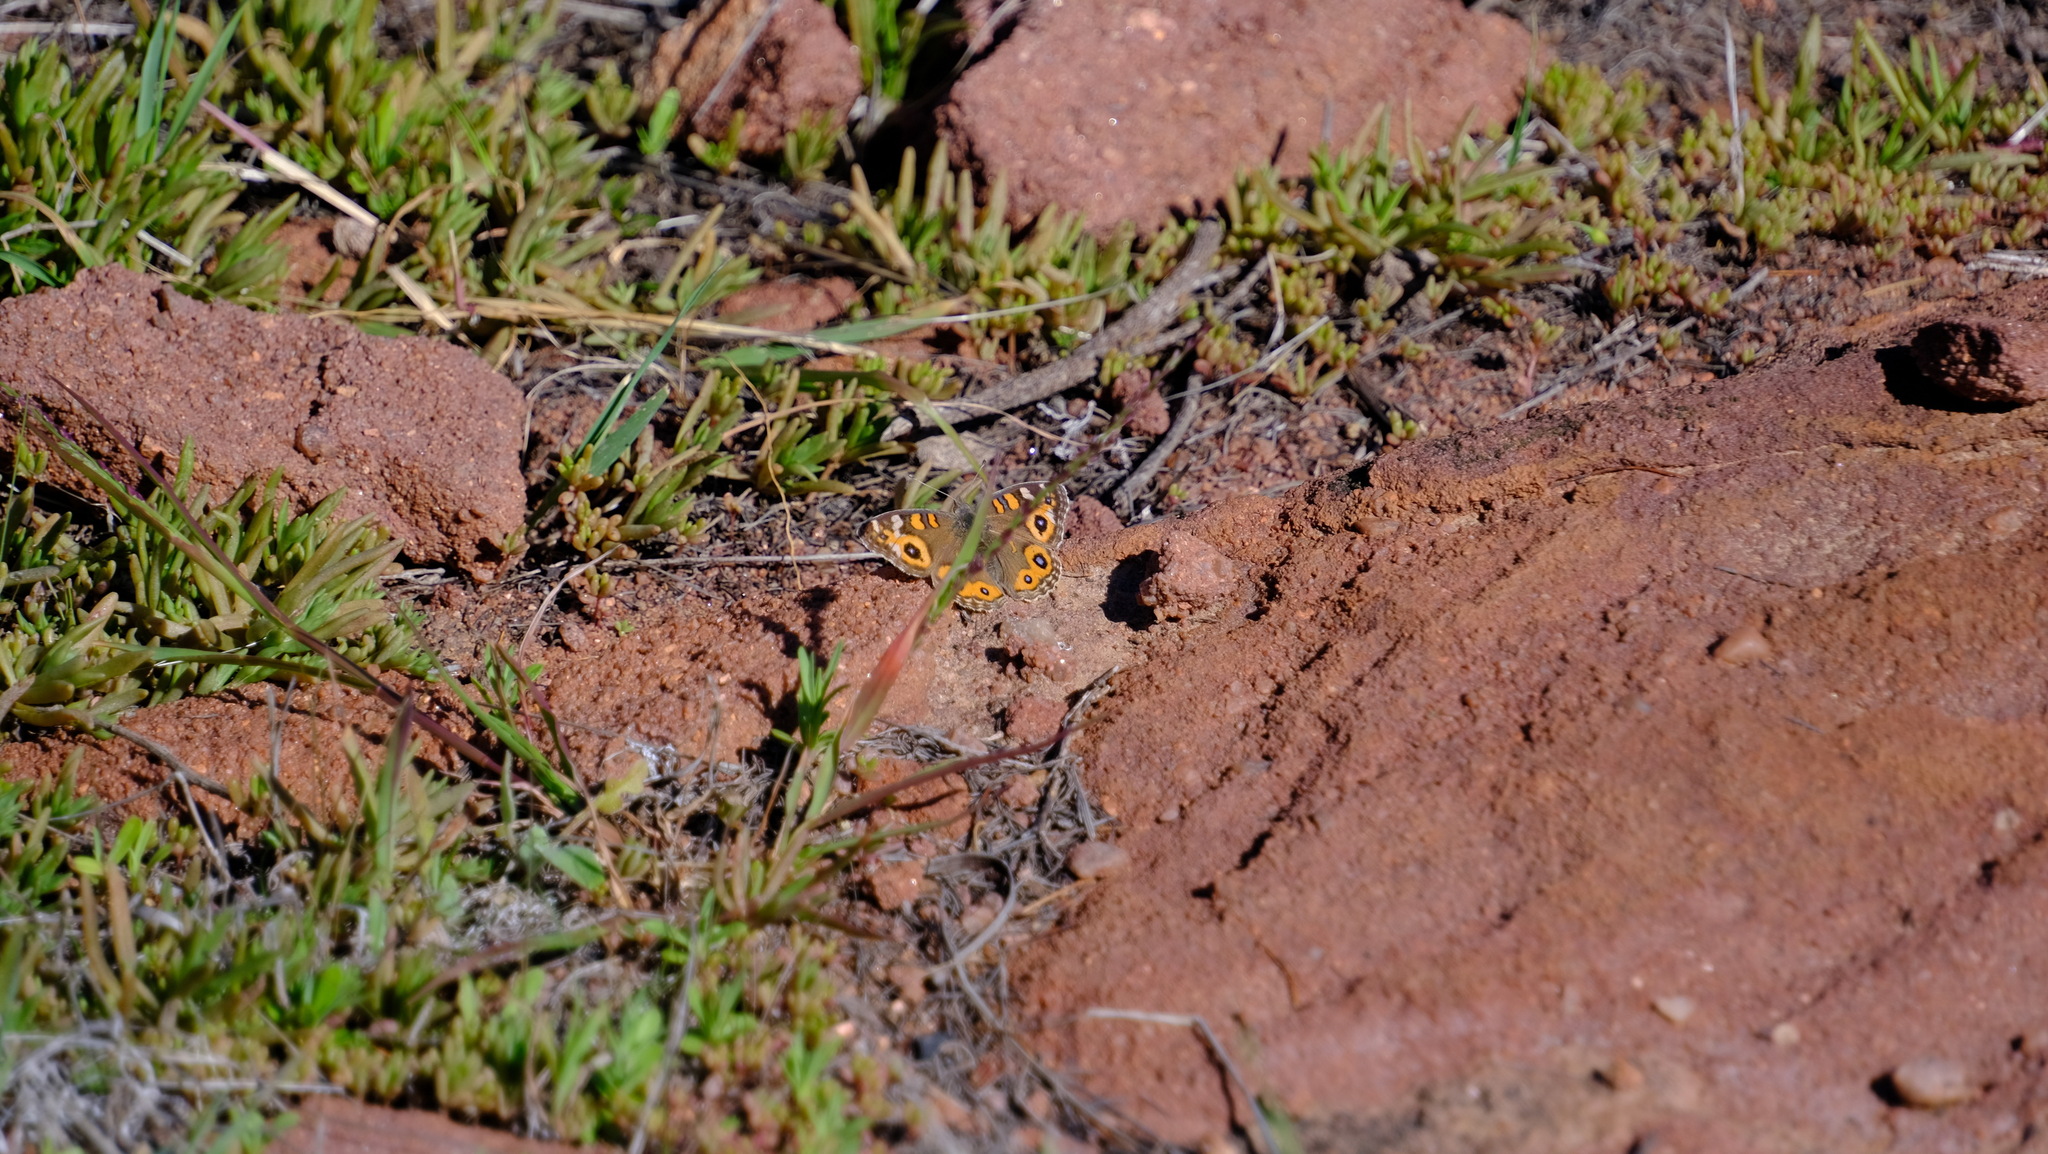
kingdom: Animalia
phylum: Arthropoda
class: Insecta
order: Lepidoptera
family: Nymphalidae
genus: Junonia
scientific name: Junonia villida
